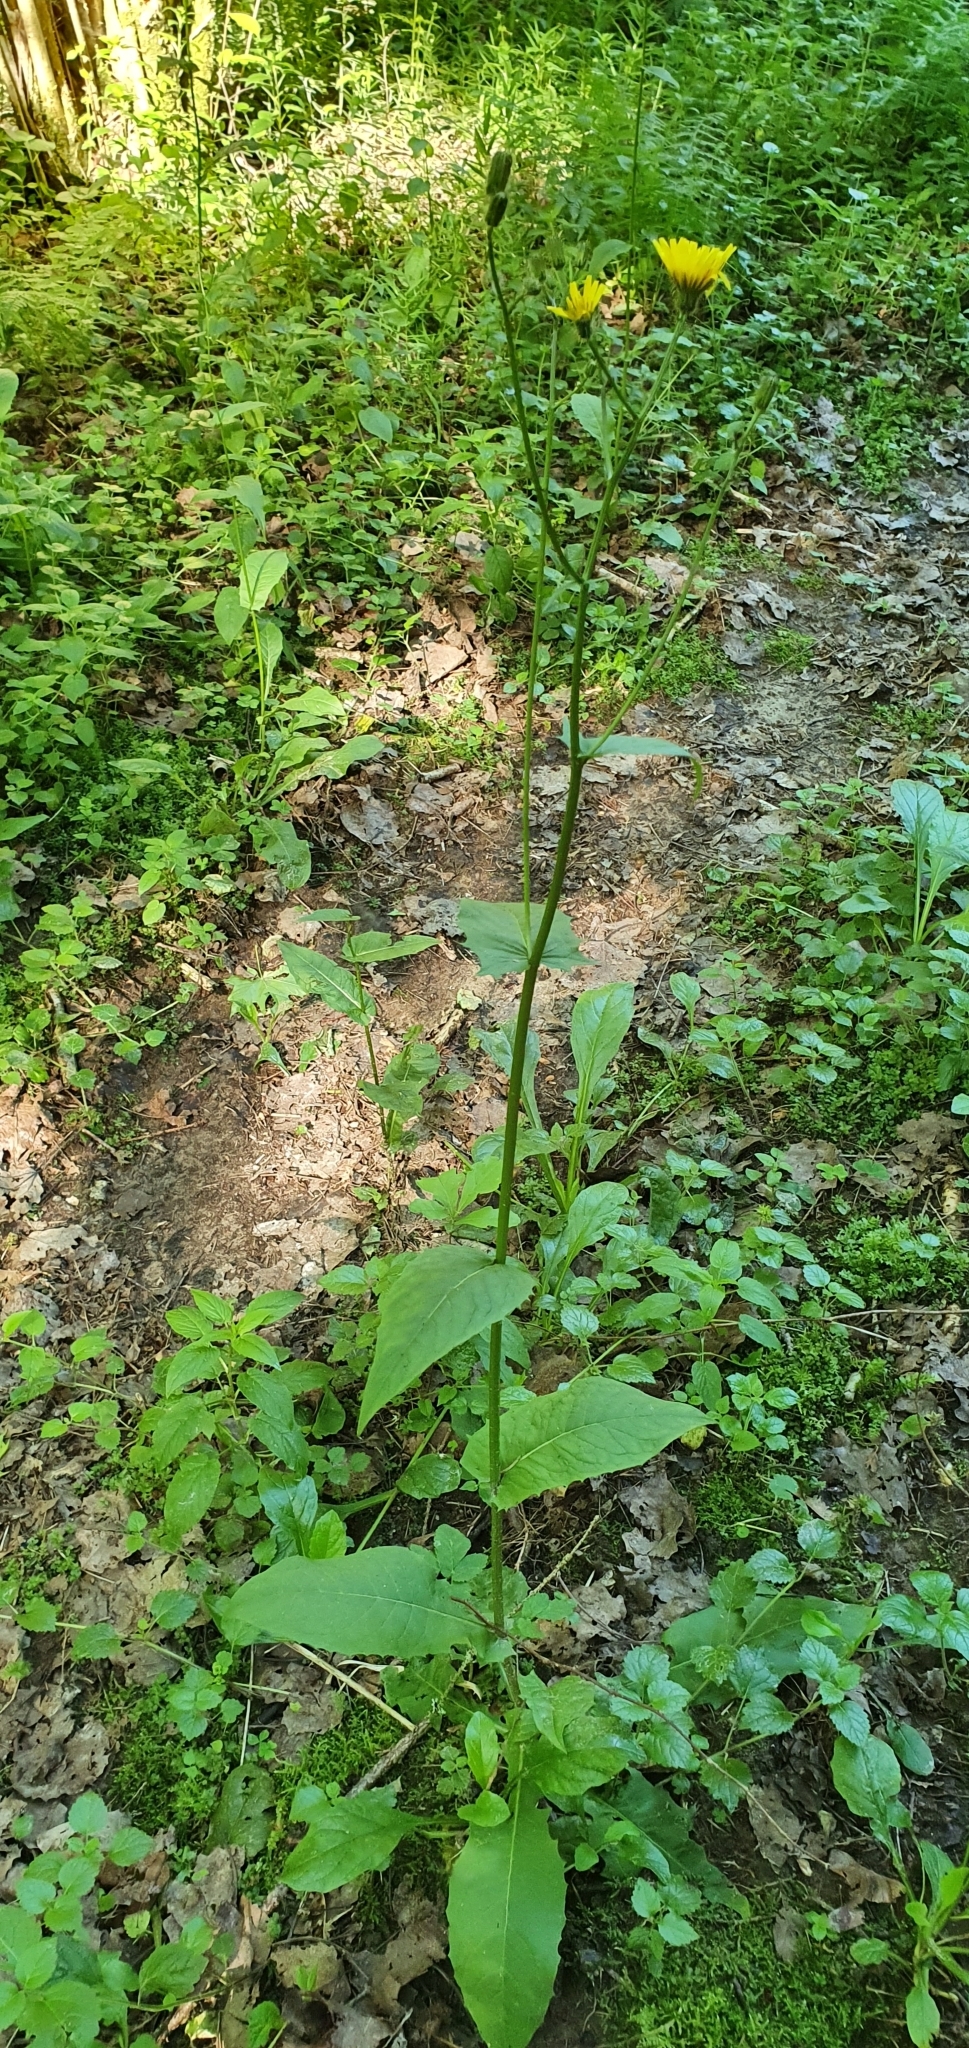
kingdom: Plantae
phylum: Tracheophyta
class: Magnoliopsida
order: Asterales
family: Asteraceae
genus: Crepis
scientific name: Crepis paludosa
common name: Marsh hawk's-beard
